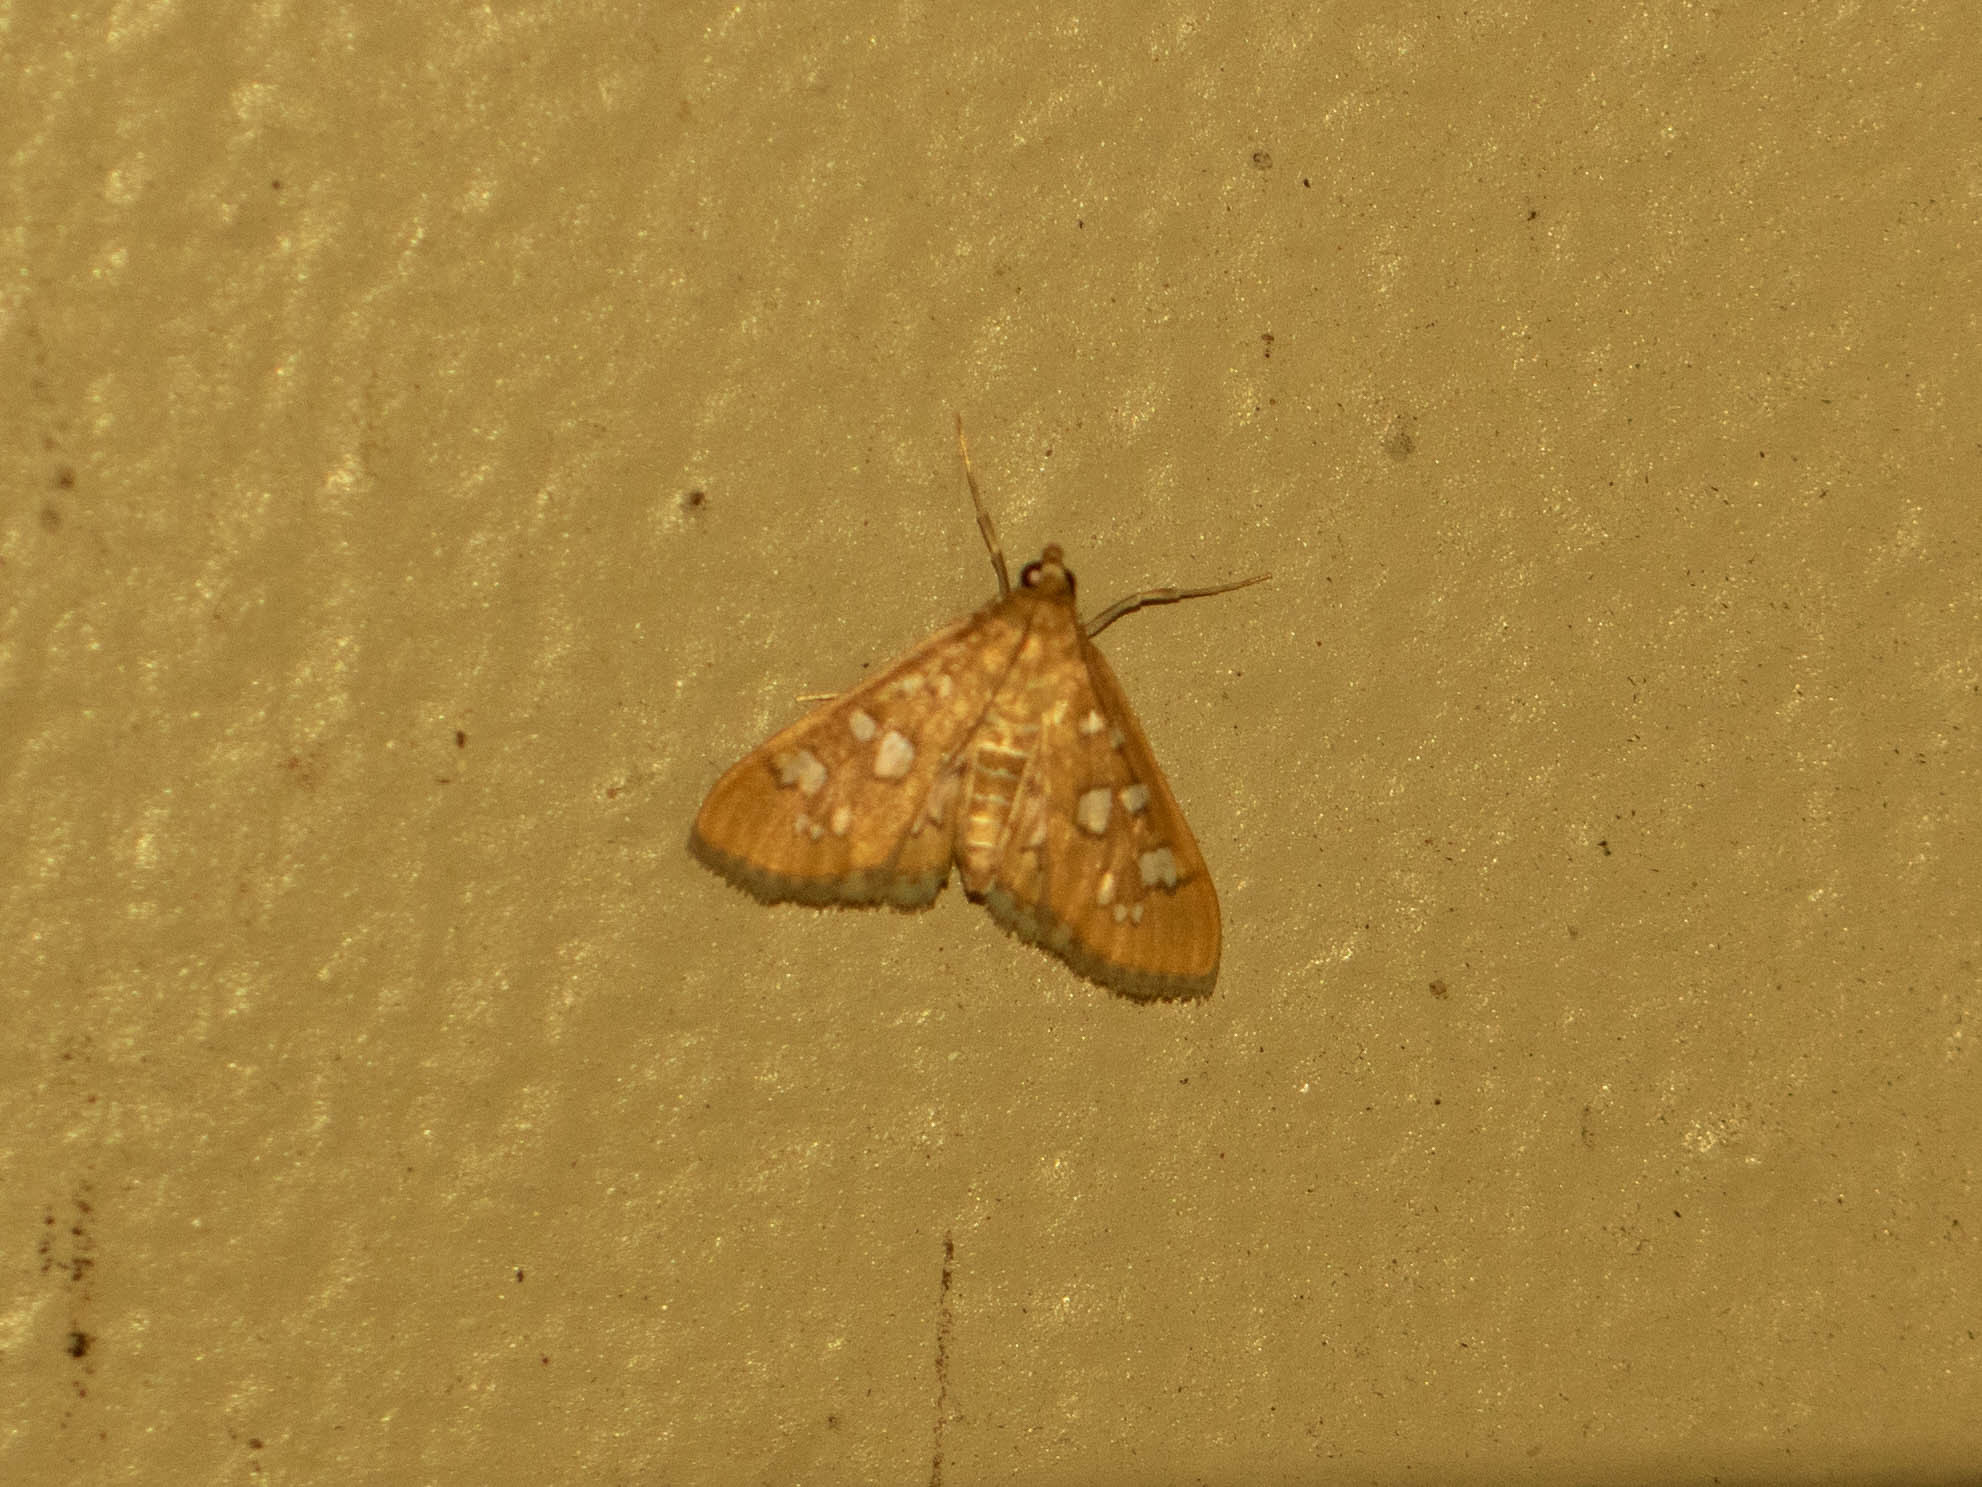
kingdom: Animalia
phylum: Arthropoda
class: Insecta
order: Lepidoptera
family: Crambidae
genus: Samea
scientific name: Samea baccatalis
